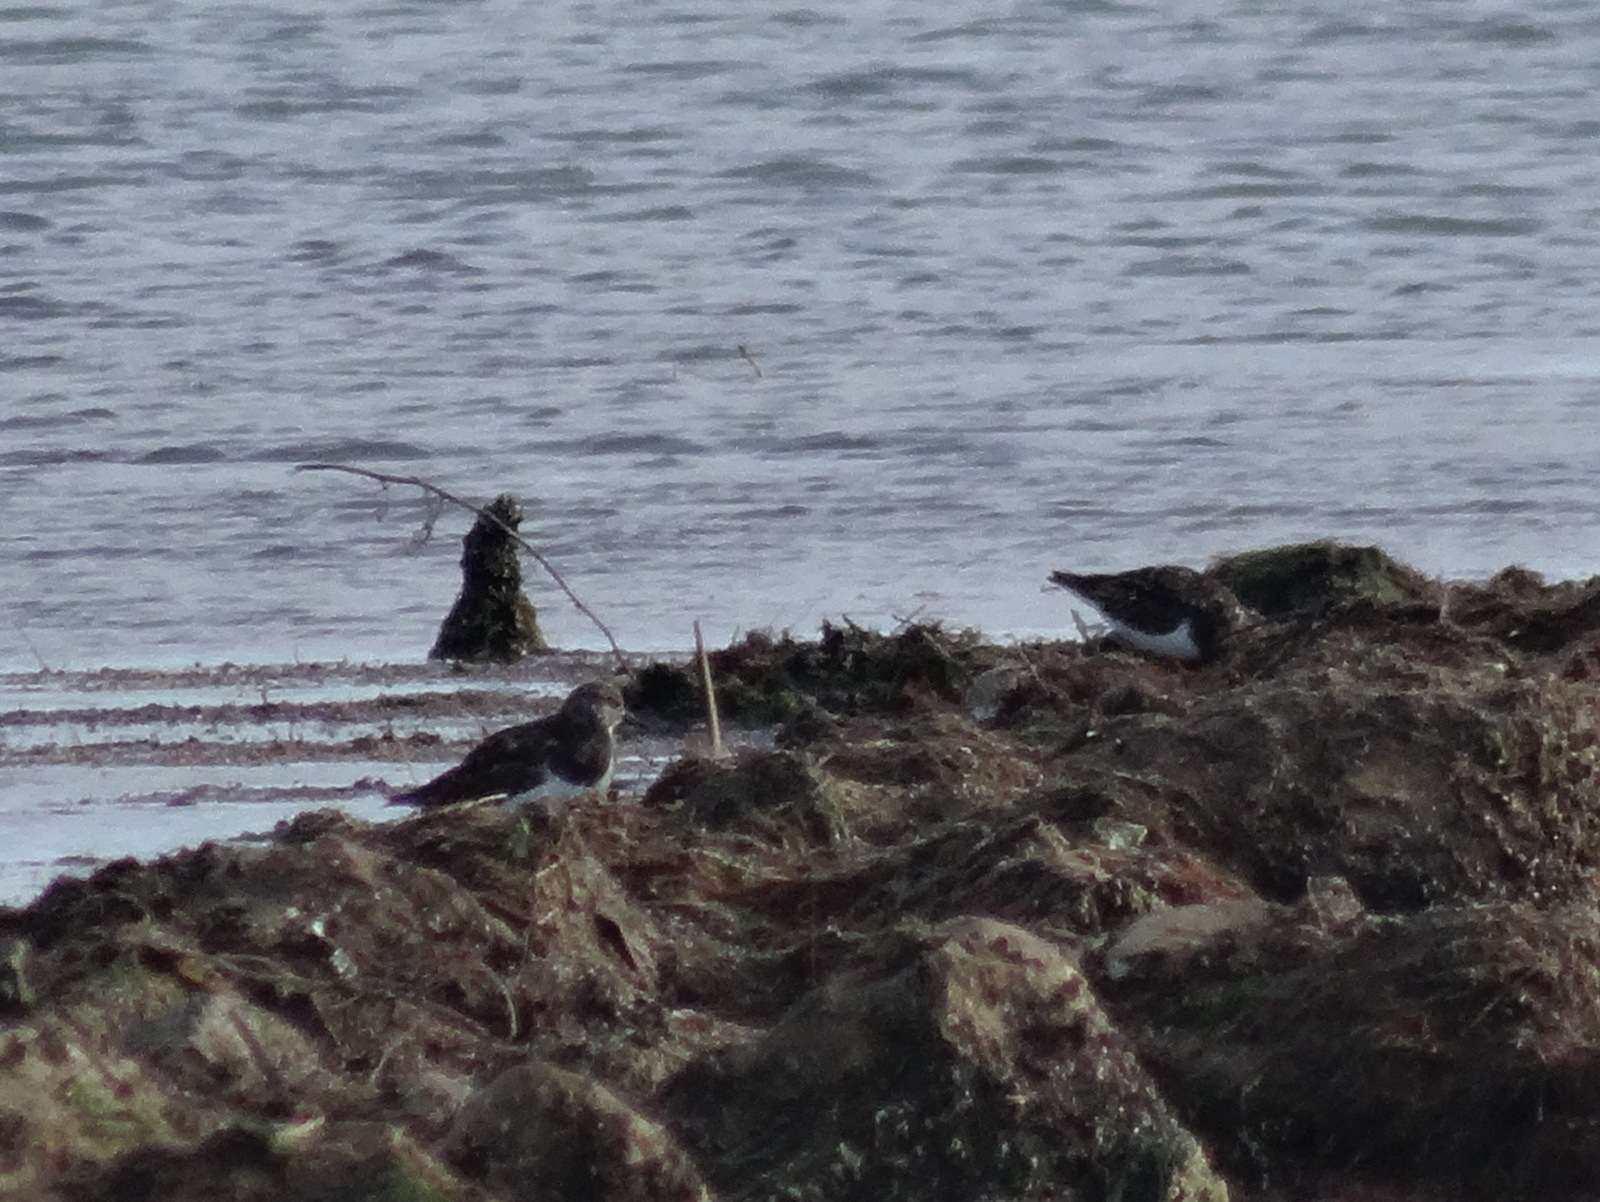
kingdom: Animalia
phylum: Chordata
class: Aves
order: Charadriiformes
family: Scolopacidae
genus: Arenaria
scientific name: Arenaria interpres
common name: Ruddy turnstone
